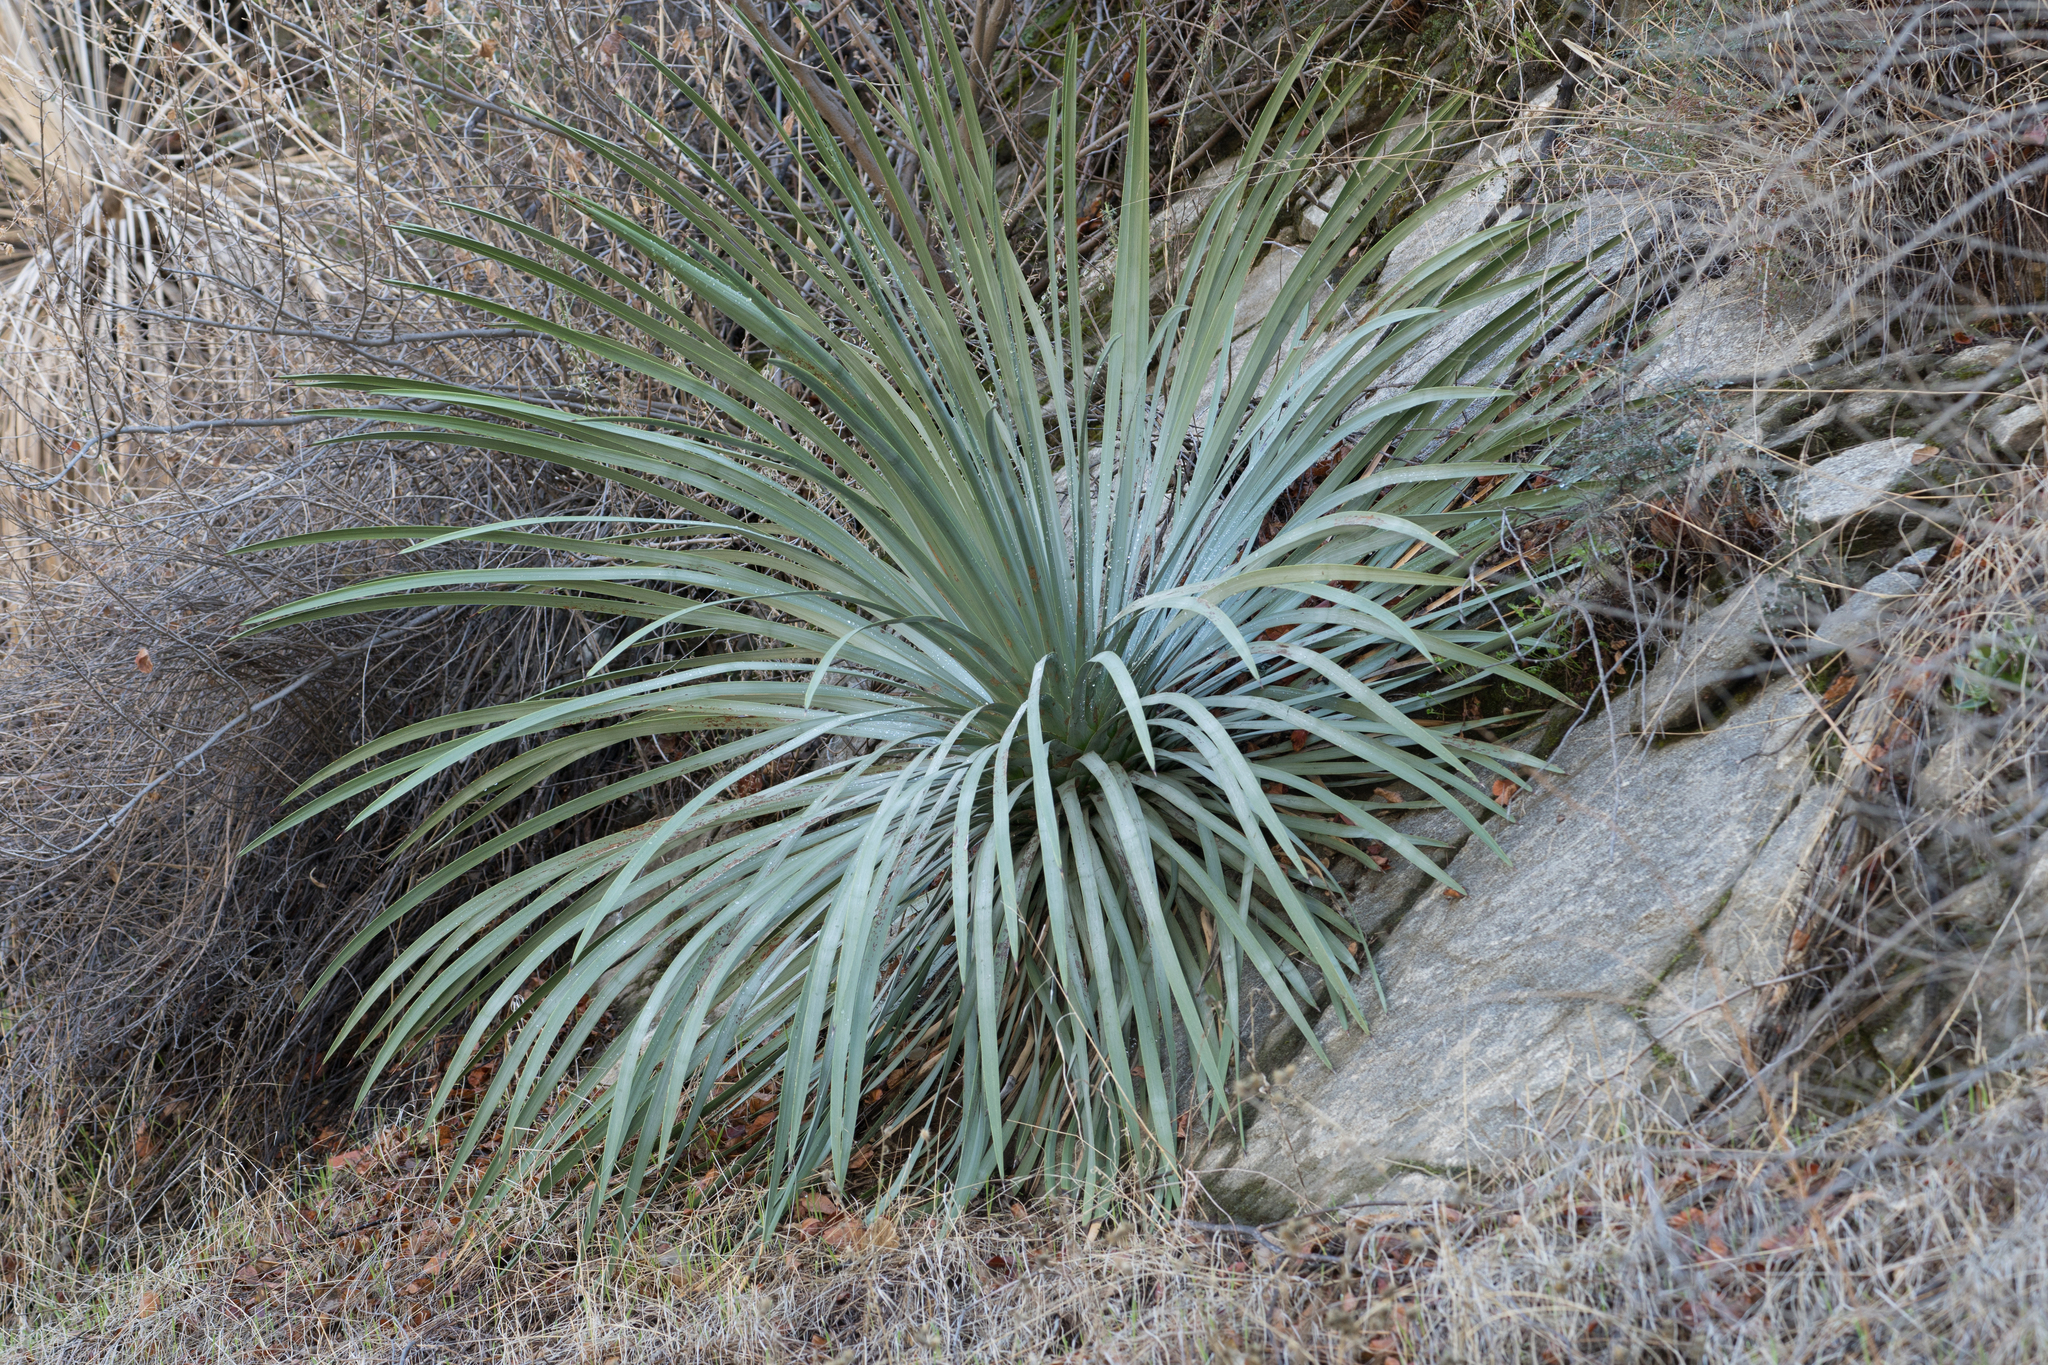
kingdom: Plantae
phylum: Tracheophyta
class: Liliopsida
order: Asparagales
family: Asparagaceae
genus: Hesperoyucca
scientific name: Hesperoyucca whipplei
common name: Our lord's-candle
